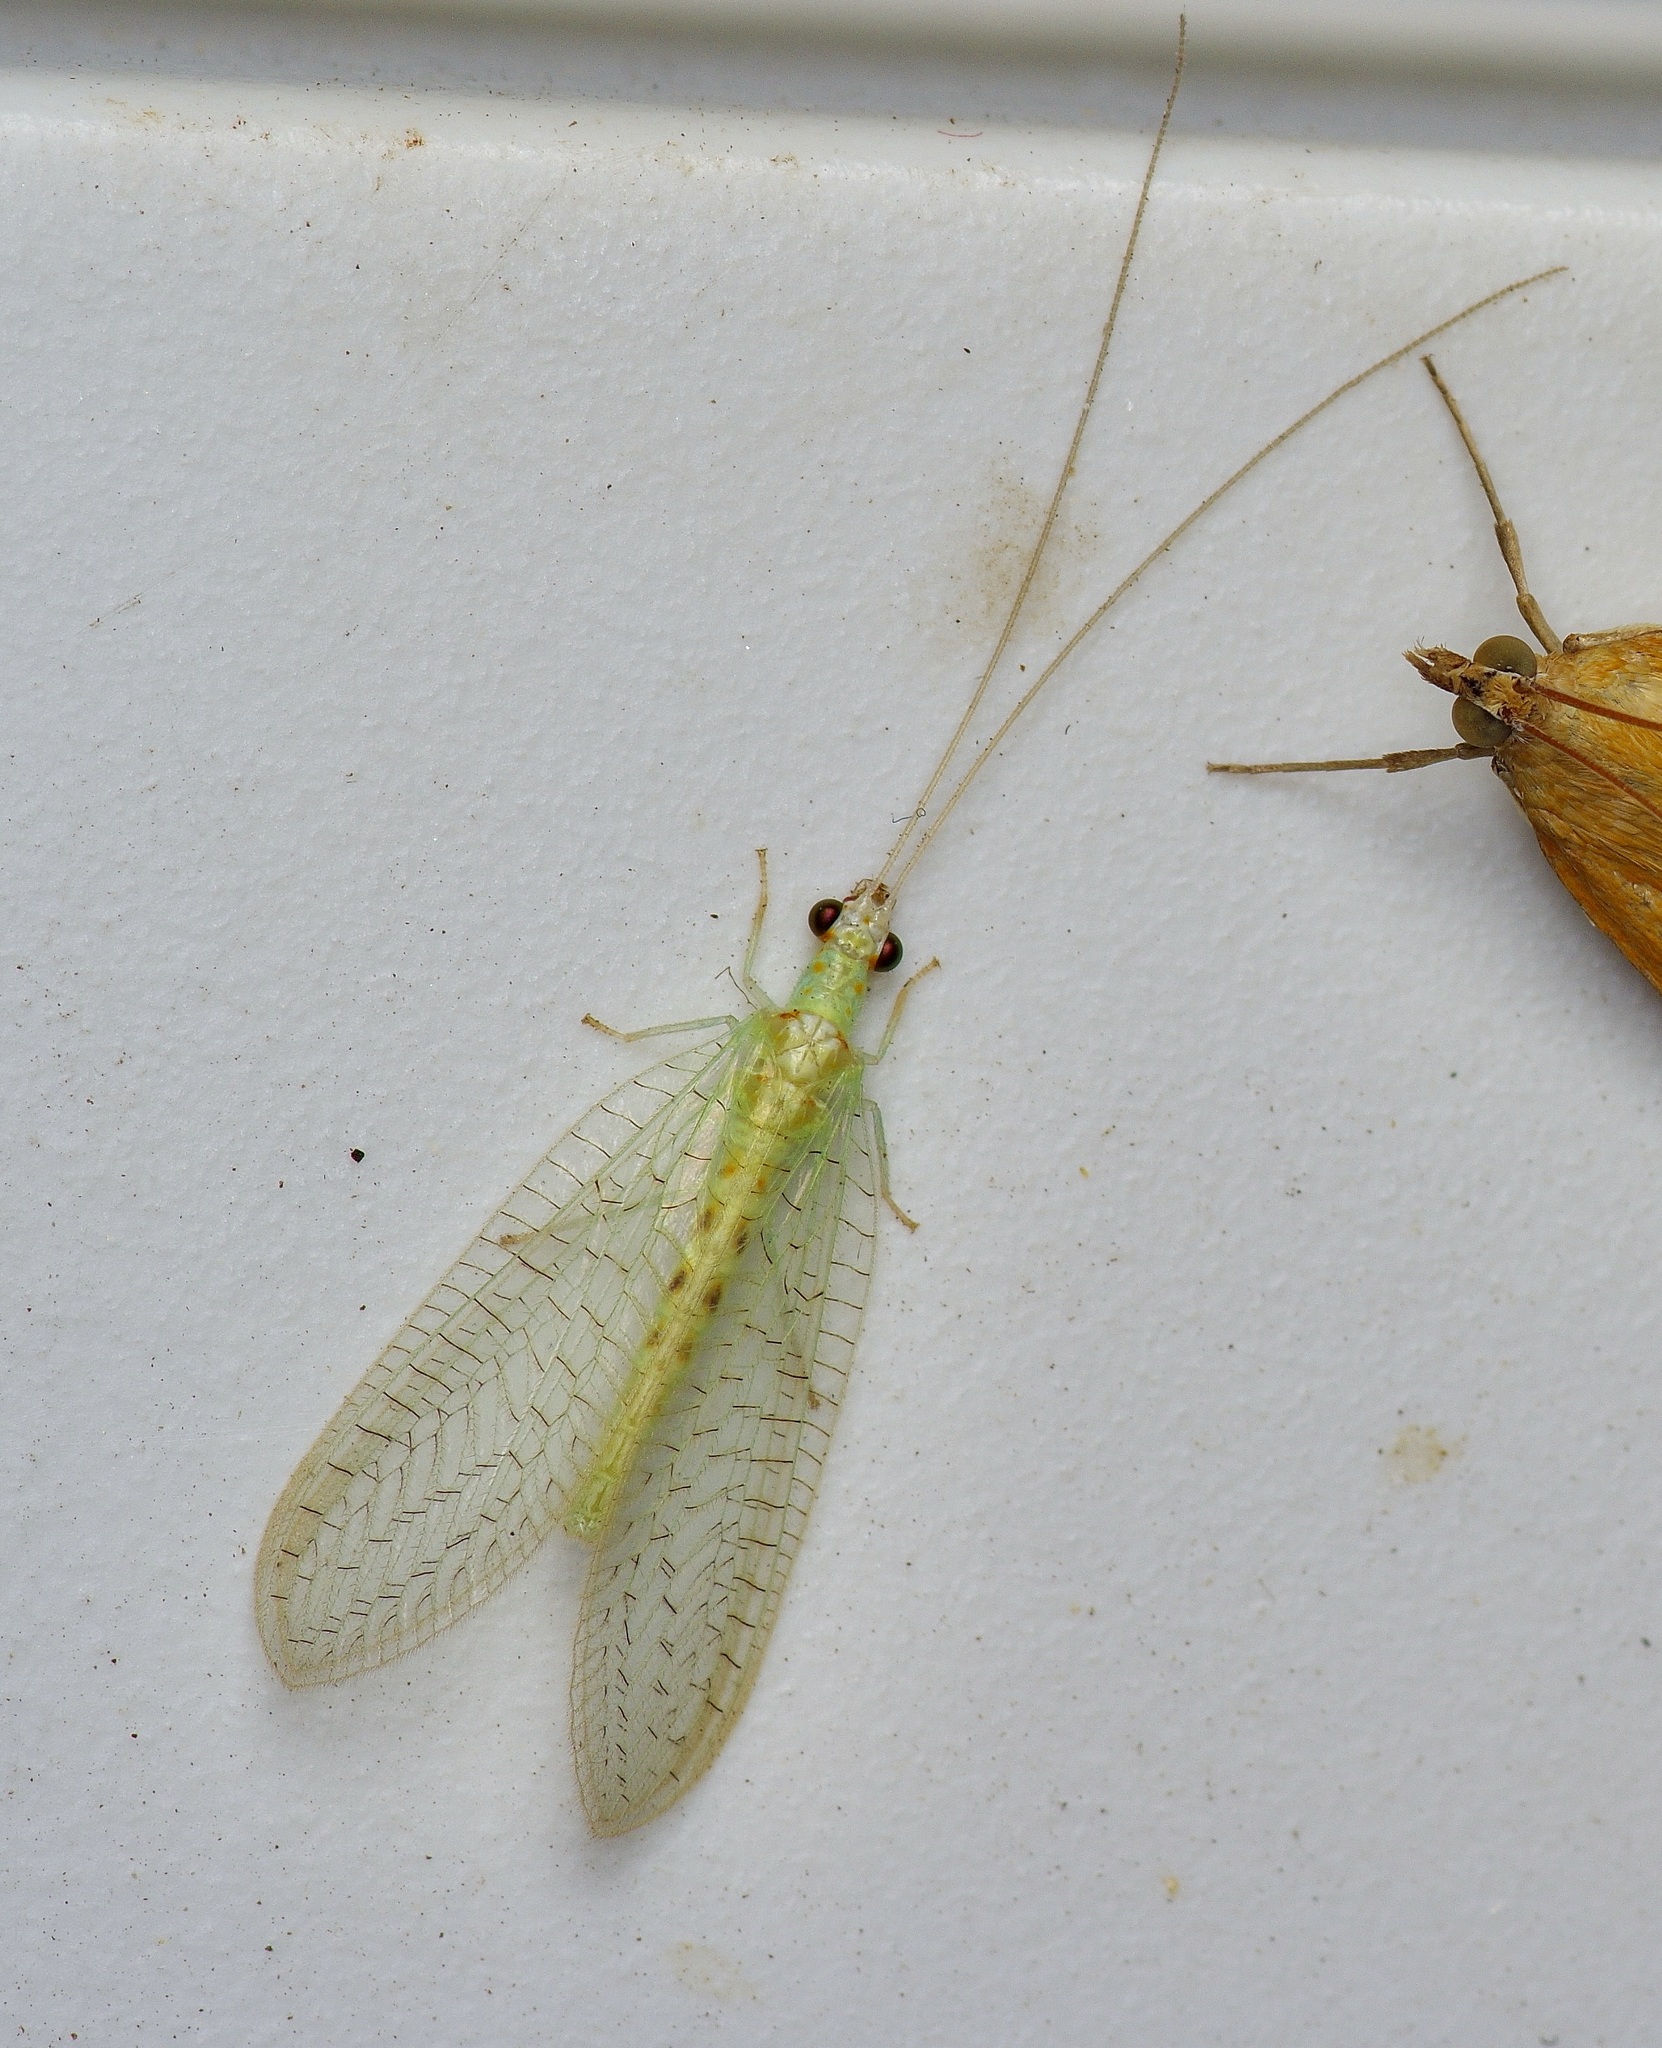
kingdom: Animalia
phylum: Arthropoda
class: Insecta
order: Neuroptera
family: Chrysopidae
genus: Chrysopa
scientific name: Chrysopa quadripunctata
